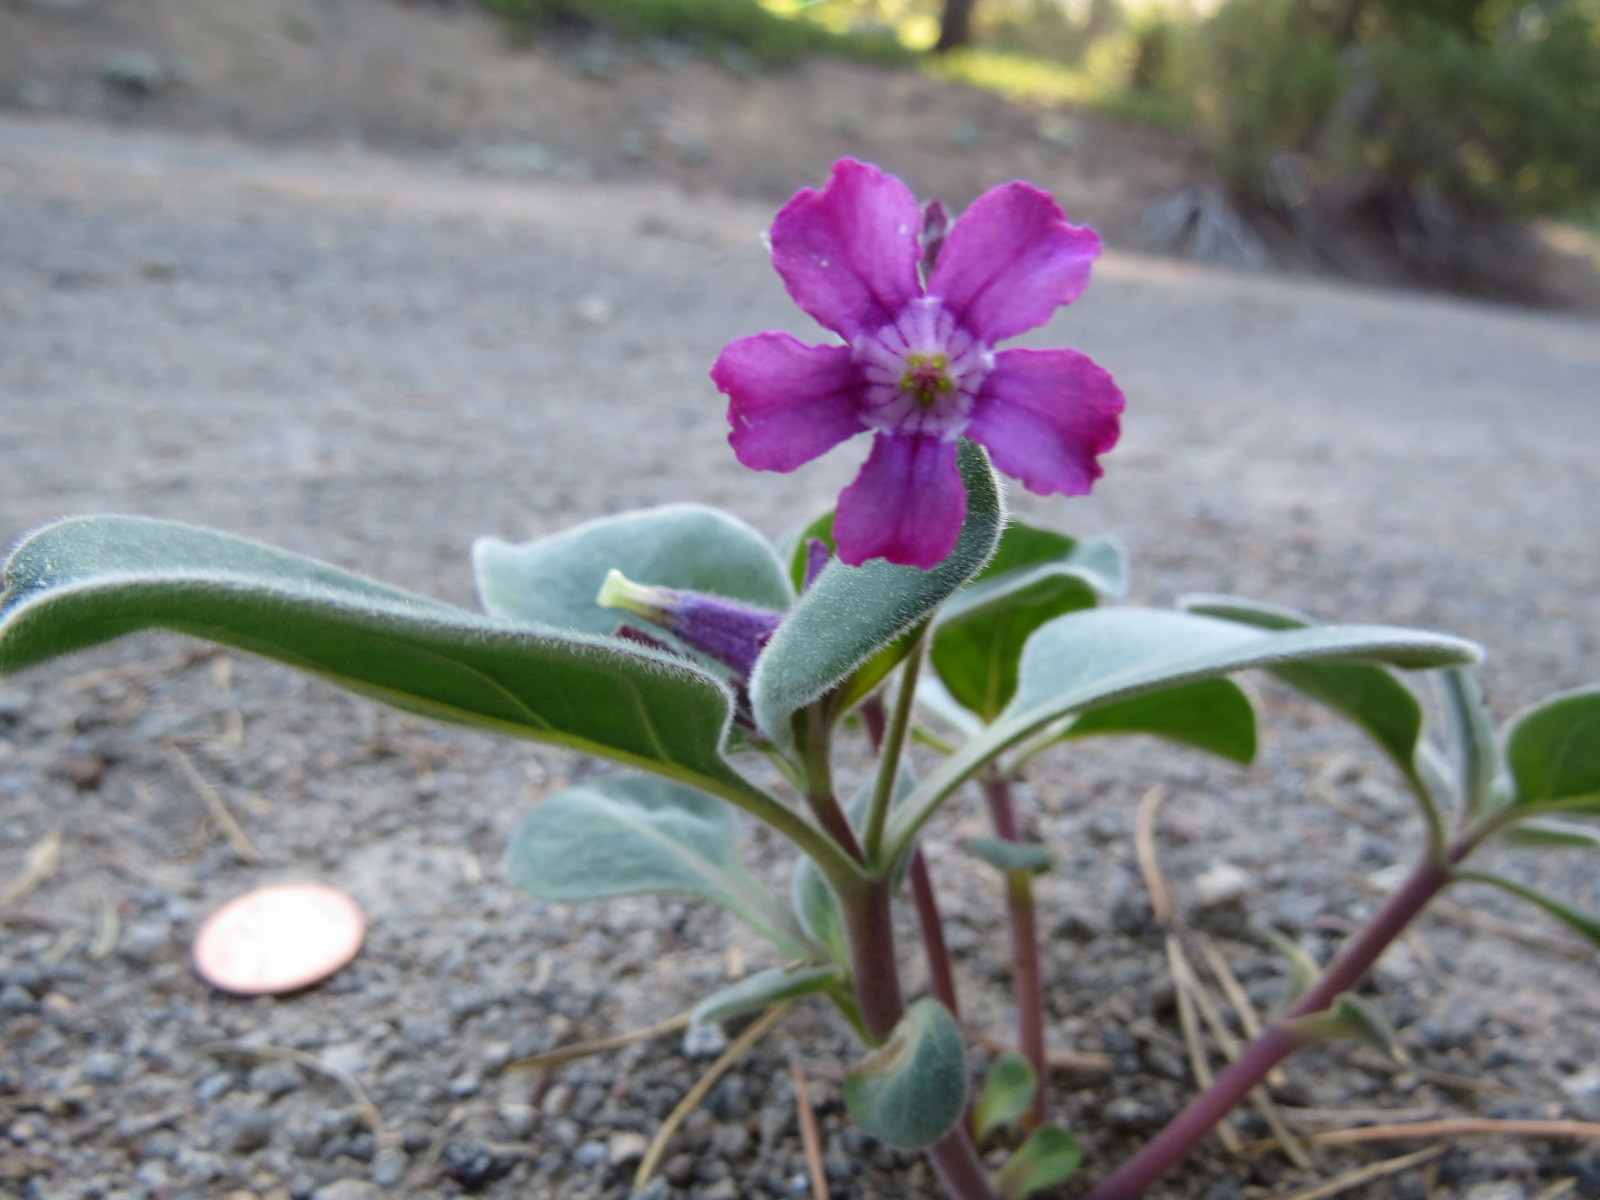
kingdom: Plantae
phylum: Tracheophyta
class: Magnoliopsida
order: Gentianales
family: Apocynaceae
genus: Cycladenia
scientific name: Cycladenia humilis
